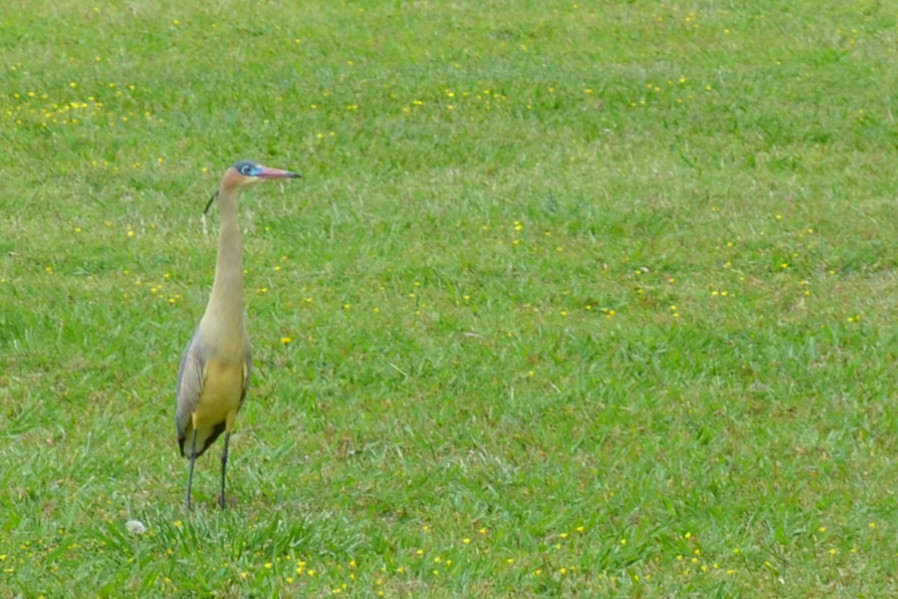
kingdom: Animalia
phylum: Chordata
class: Aves
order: Pelecaniformes
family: Ardeidae
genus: Syrigma
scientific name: Syrigma sibilatrix
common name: Whistling heron
